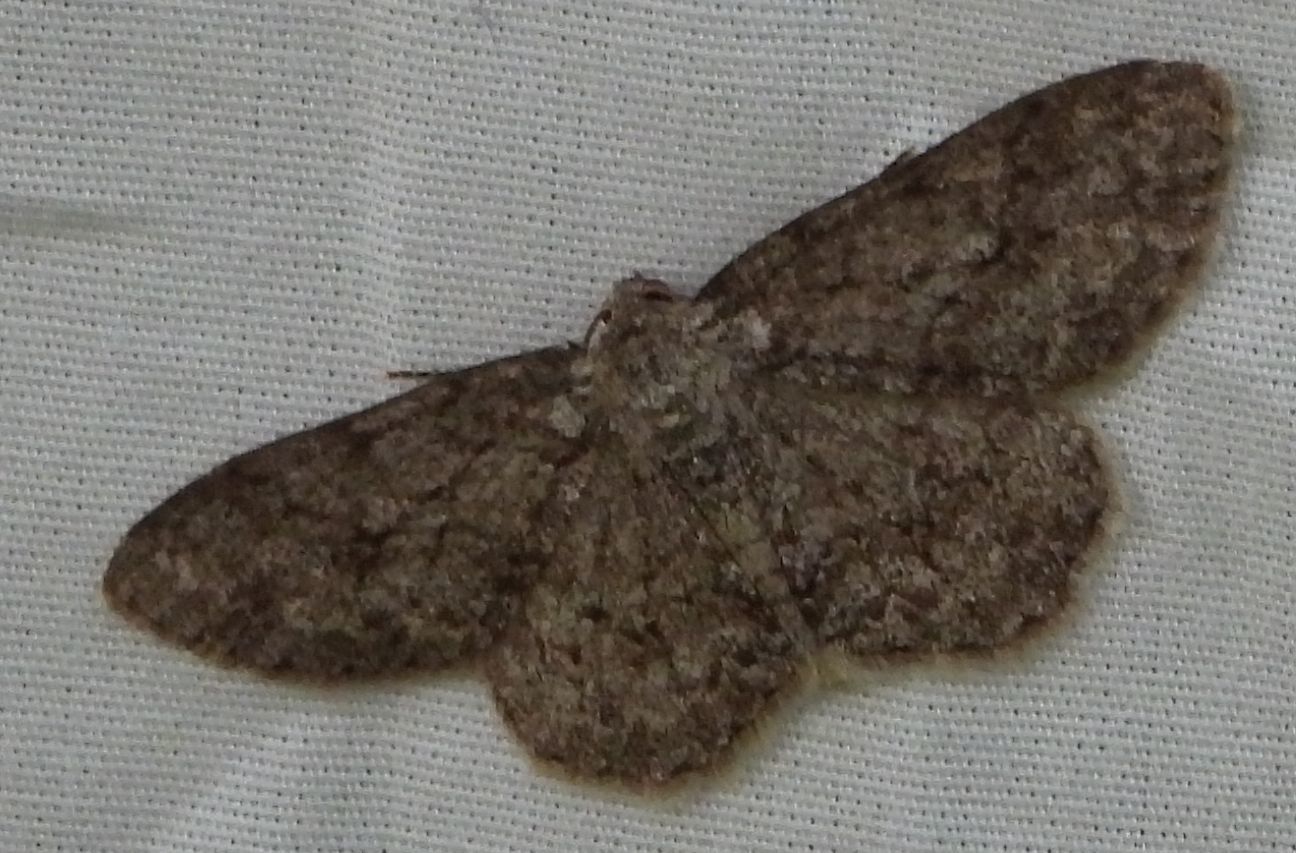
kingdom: Animalia
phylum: Arthropoda
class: Insecta
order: Lepidoptera
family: Geometridae
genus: Ectropis
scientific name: Ectropis crepuscularia
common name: Engrailed
